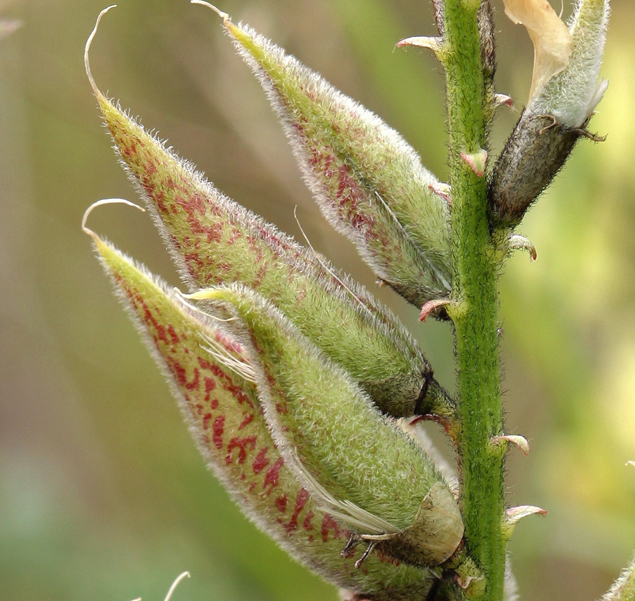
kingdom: Plantae
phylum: Tracheophyta
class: Magnoliopsida
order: Fabales
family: Fabaceae
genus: Astragalus
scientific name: Astragalus lentiginosus
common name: Freckled milkvetch
